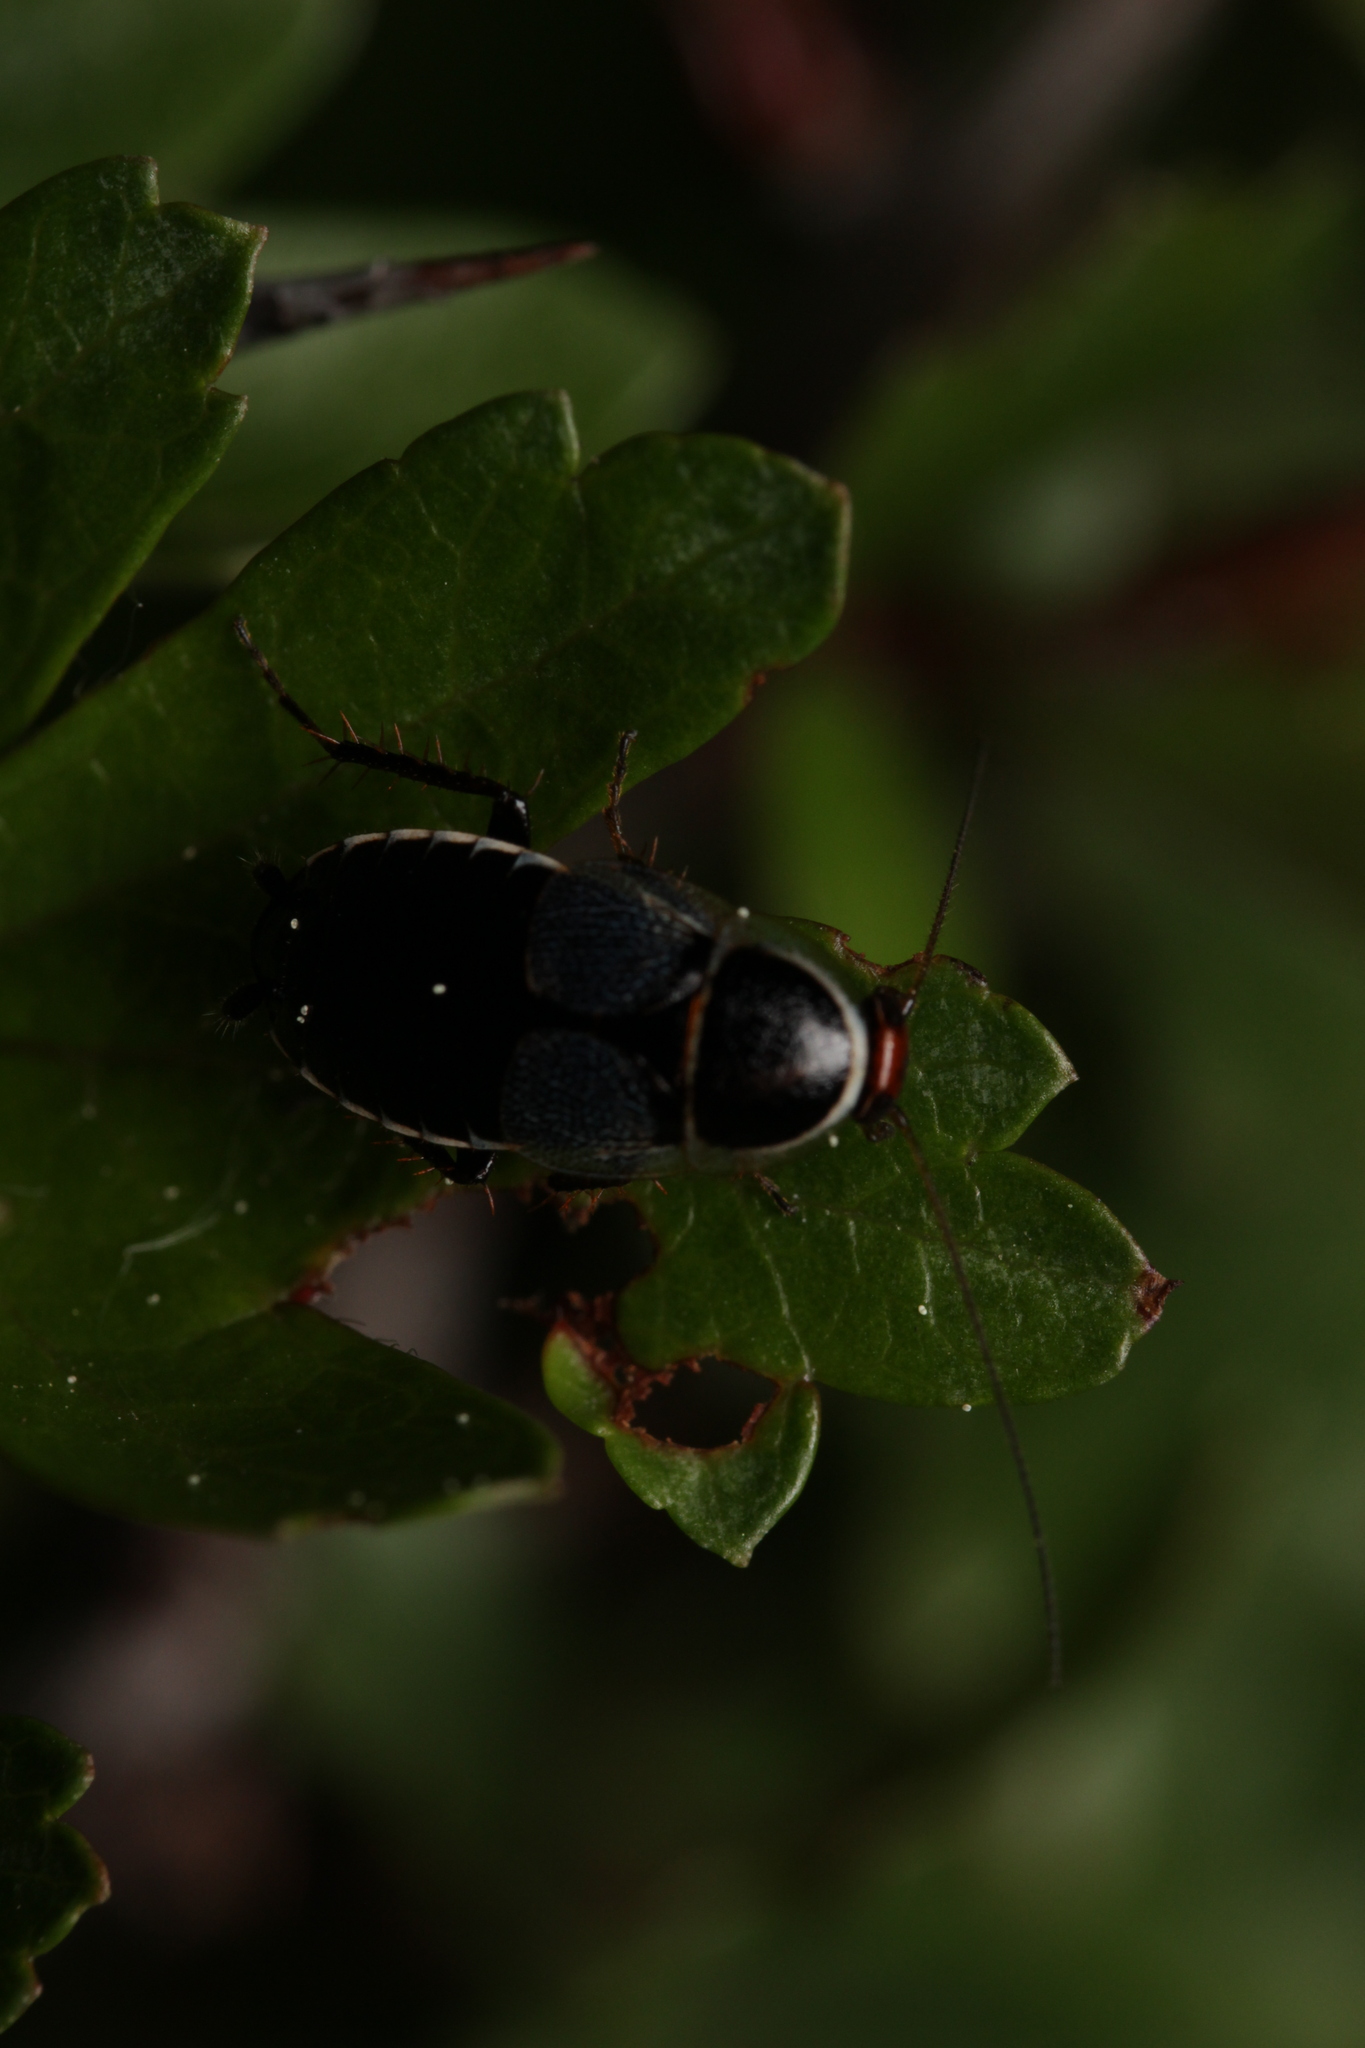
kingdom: Animalia
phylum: Arthropoda
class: Insecta
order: Blattodea
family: Ectobiidae
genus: Phyllodromica
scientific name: Phyllodromica megerlei
